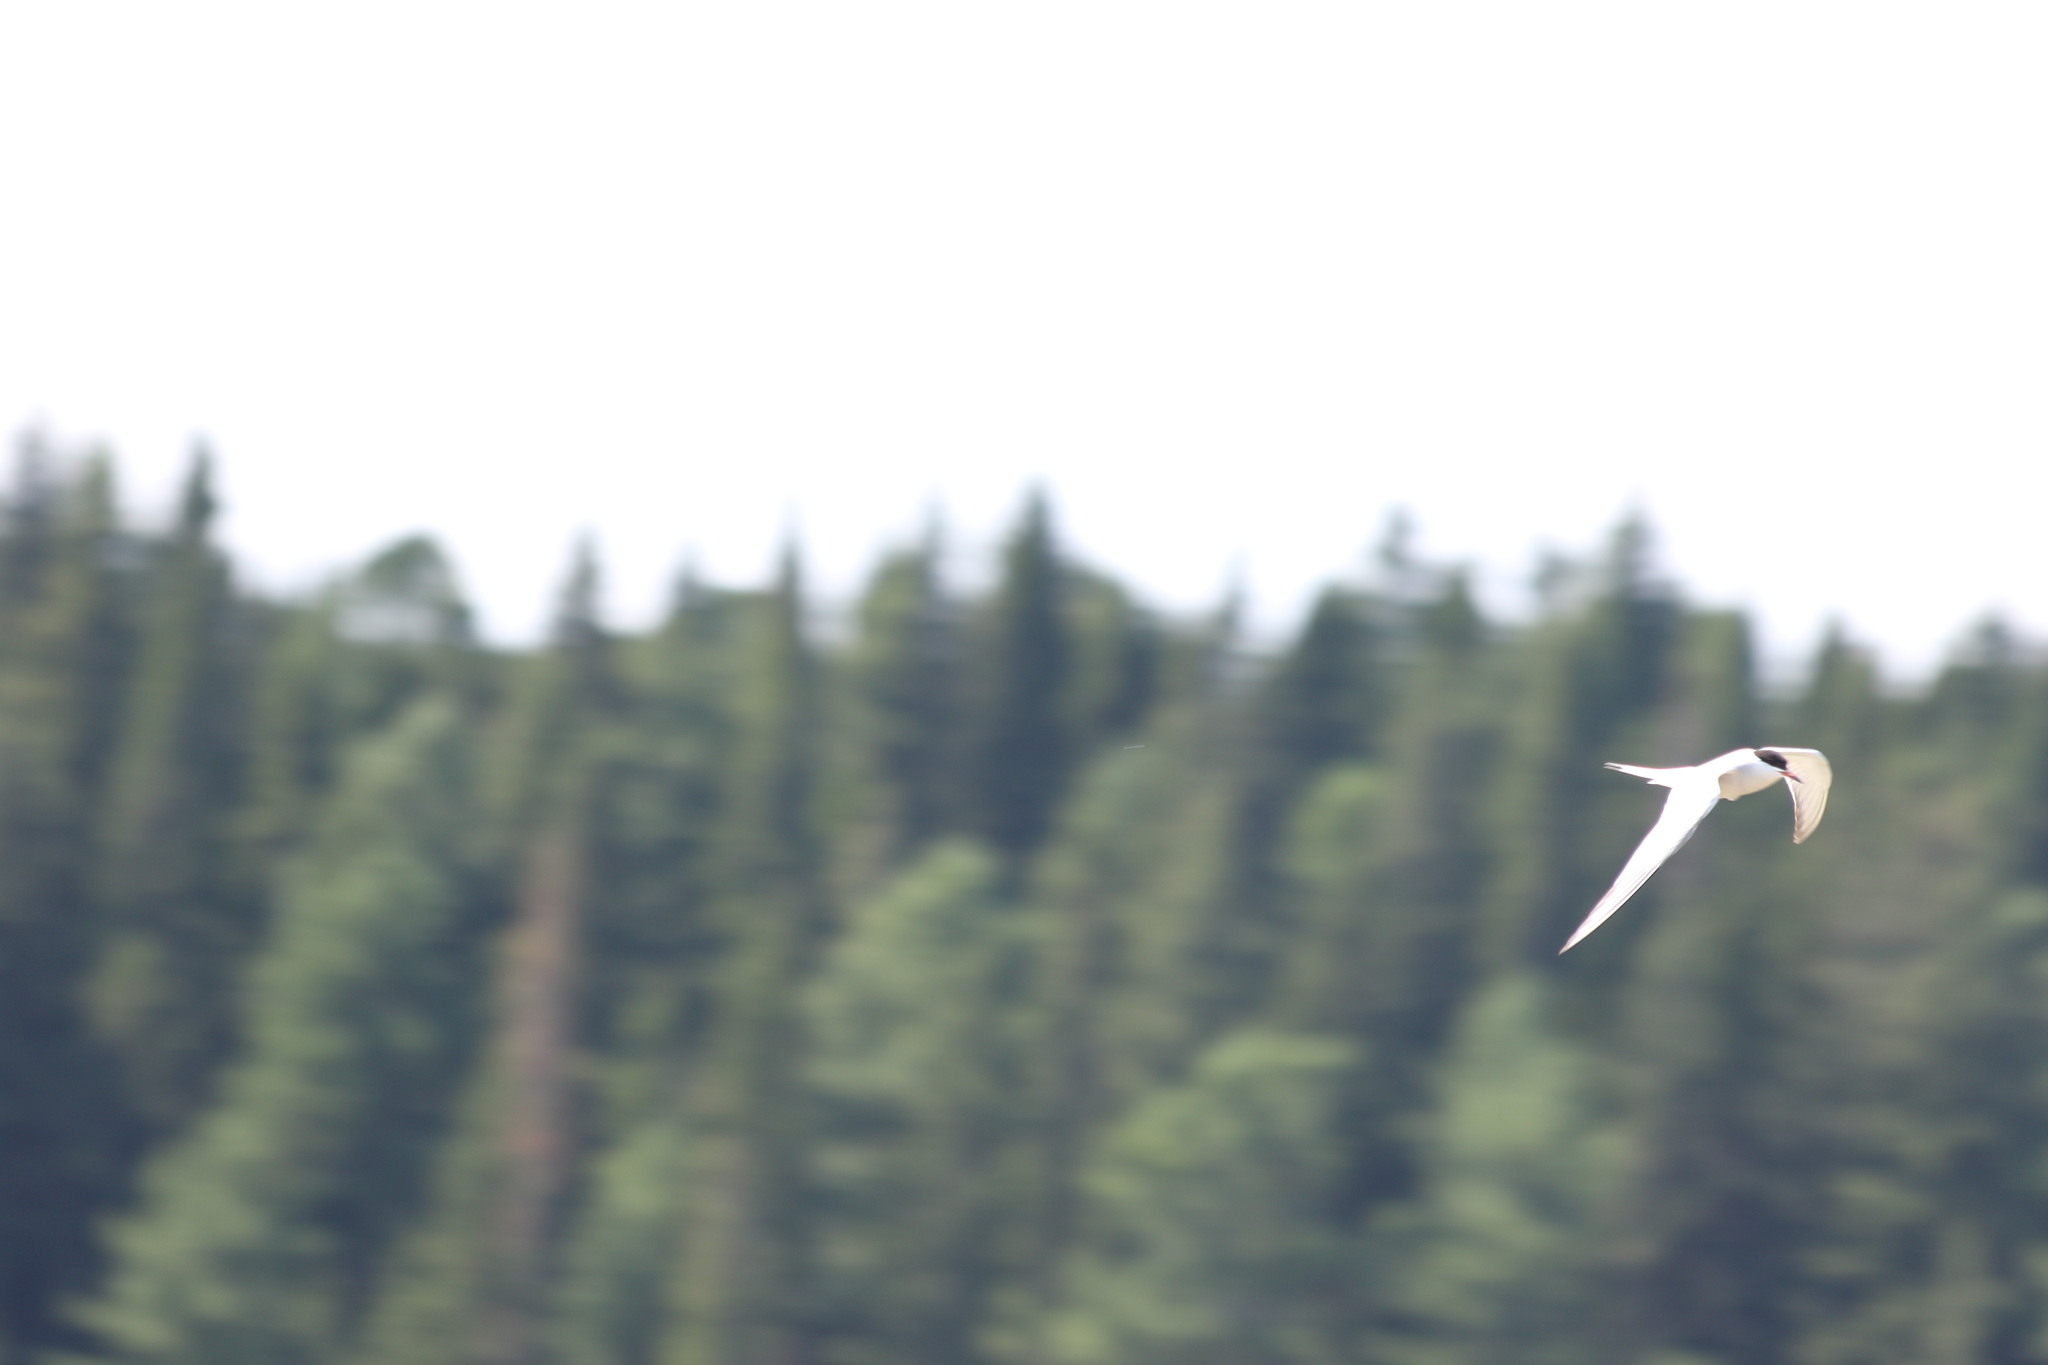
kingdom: Animalia
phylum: Chordata
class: Aves
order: Charadriiformes
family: Laridae
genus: Sterna
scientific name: Sterna hirundo
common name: Common tern
